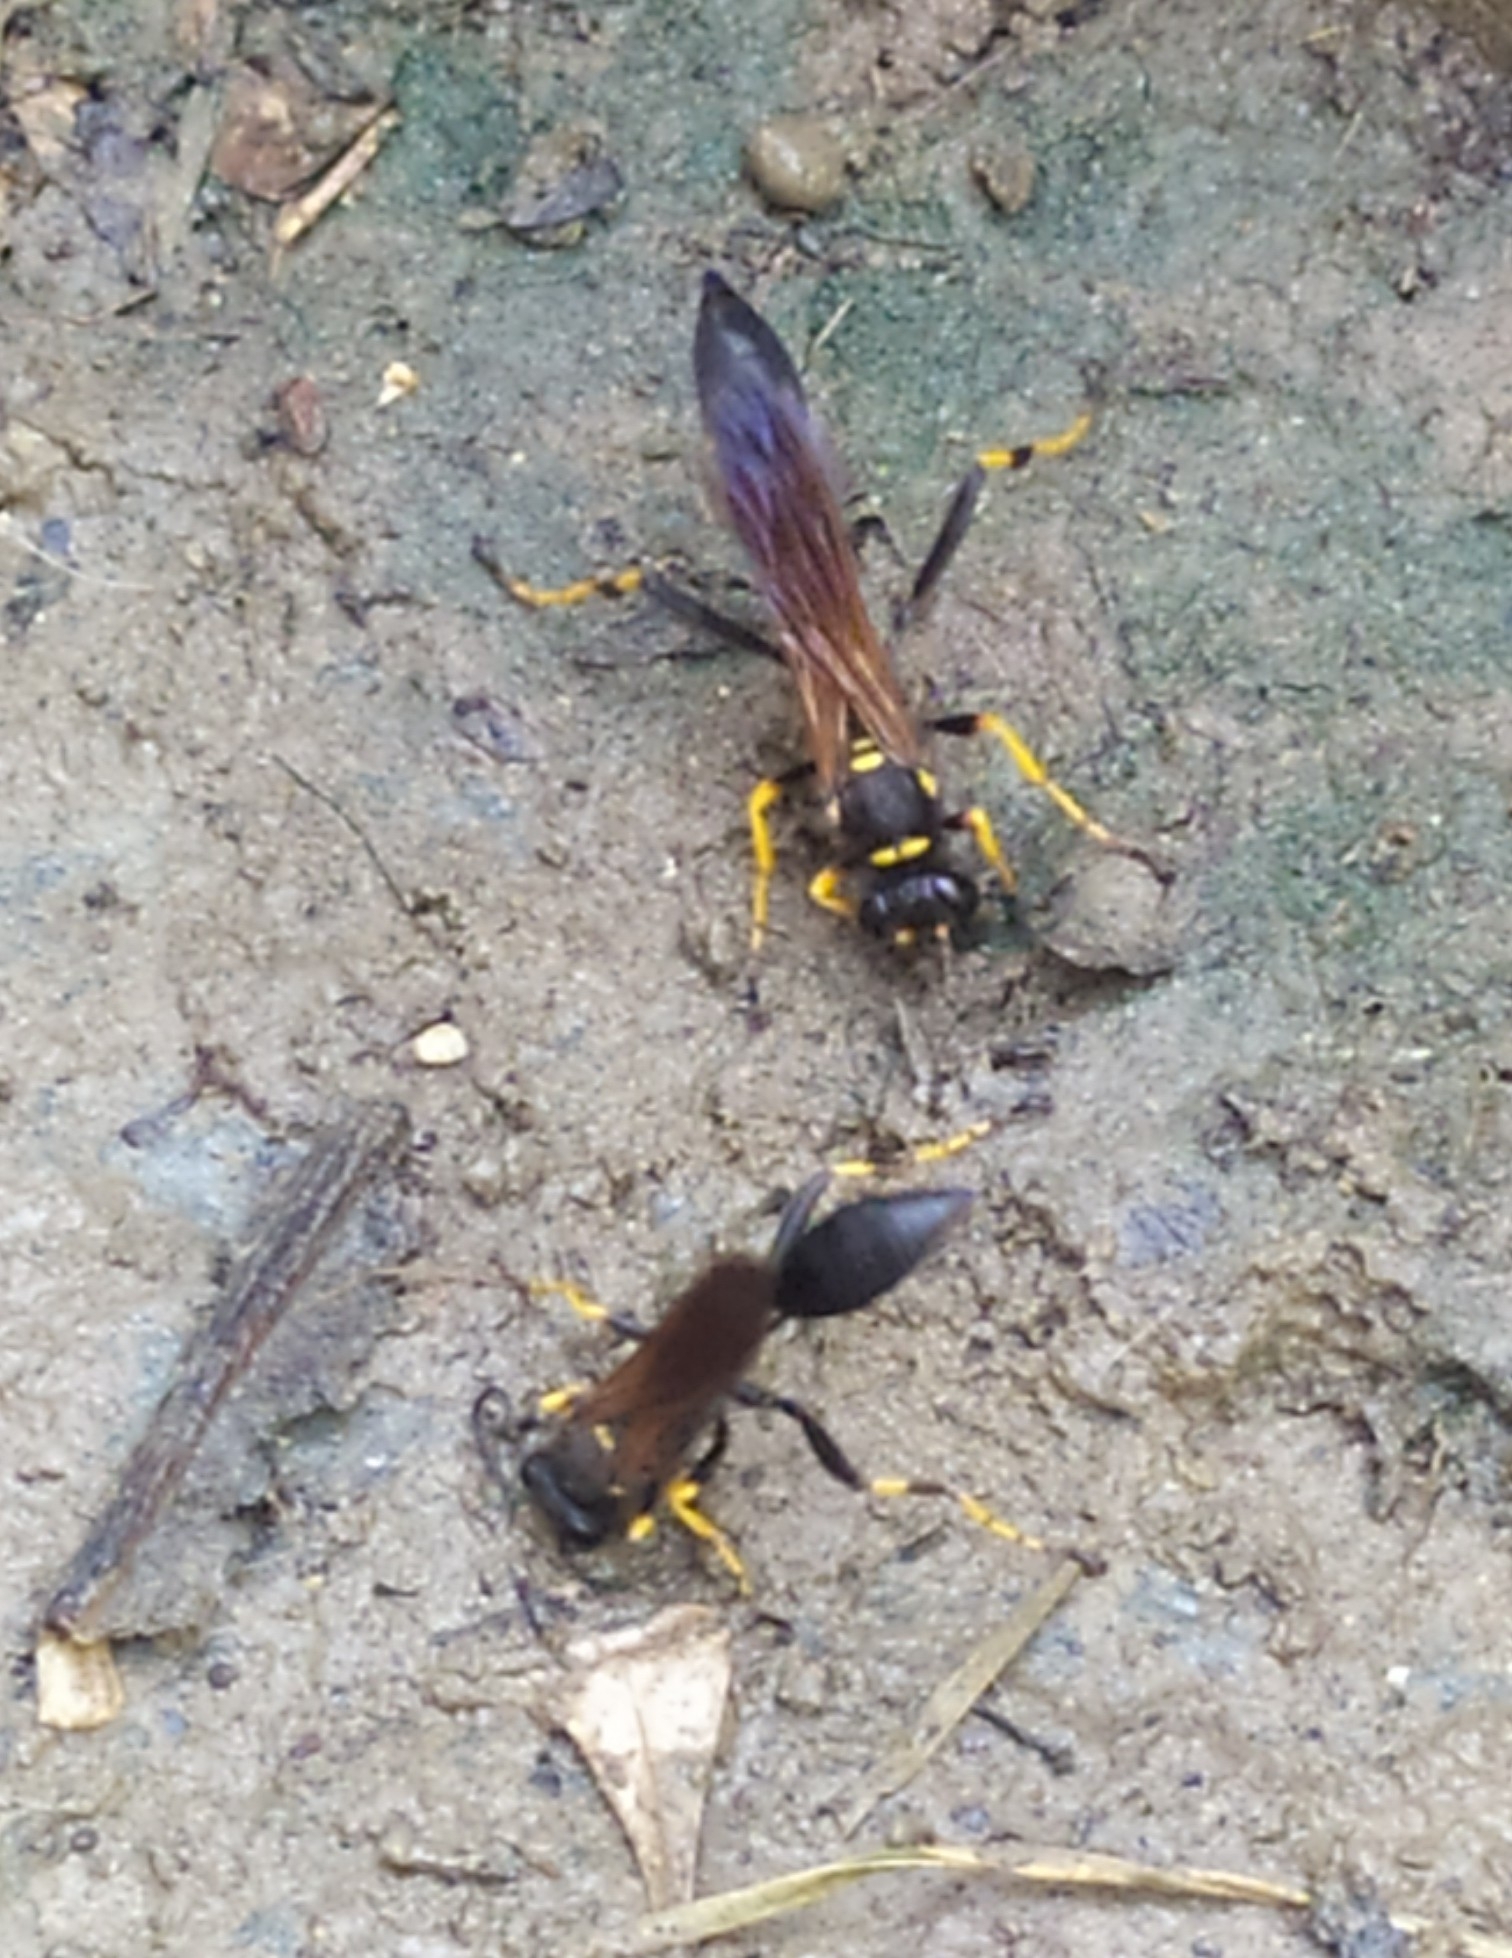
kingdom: Animalia
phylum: Arthropoda
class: Insecta
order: Hymenoptera
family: Sphecidae
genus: Sceliphron
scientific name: Sceliphron caementarium
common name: Mud dauber
